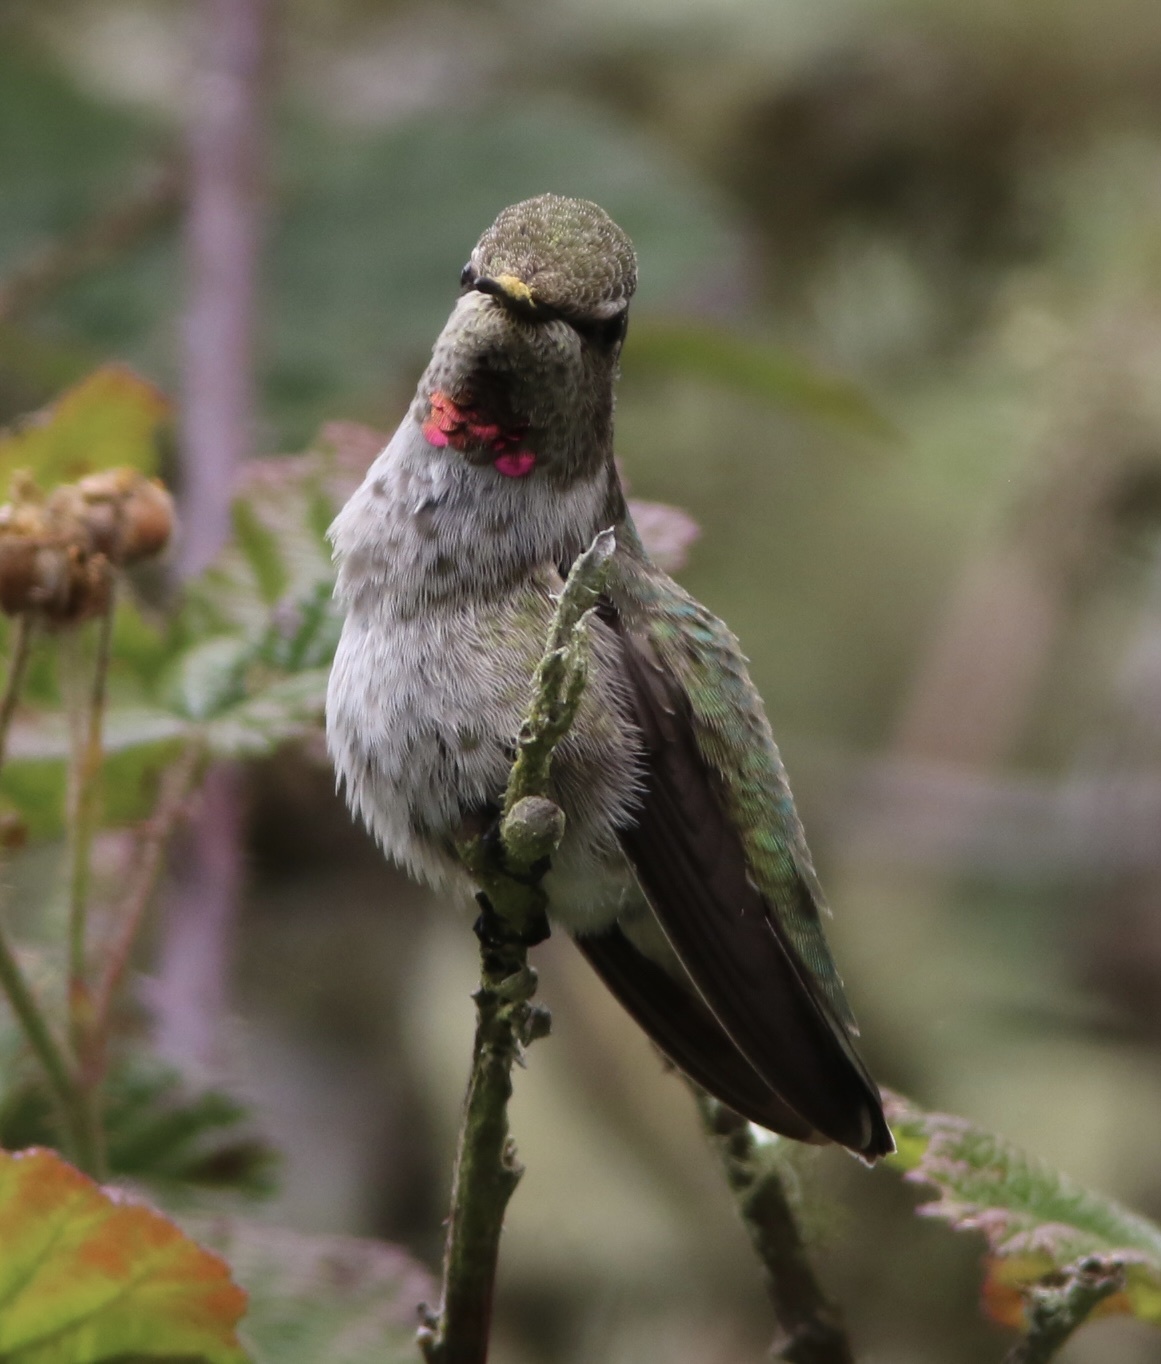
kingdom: Animalia
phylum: Chordata
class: Aves
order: Apodiformes
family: Trochilidae
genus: Calypte
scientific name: Calypte anna
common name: Anna's hummingbird
